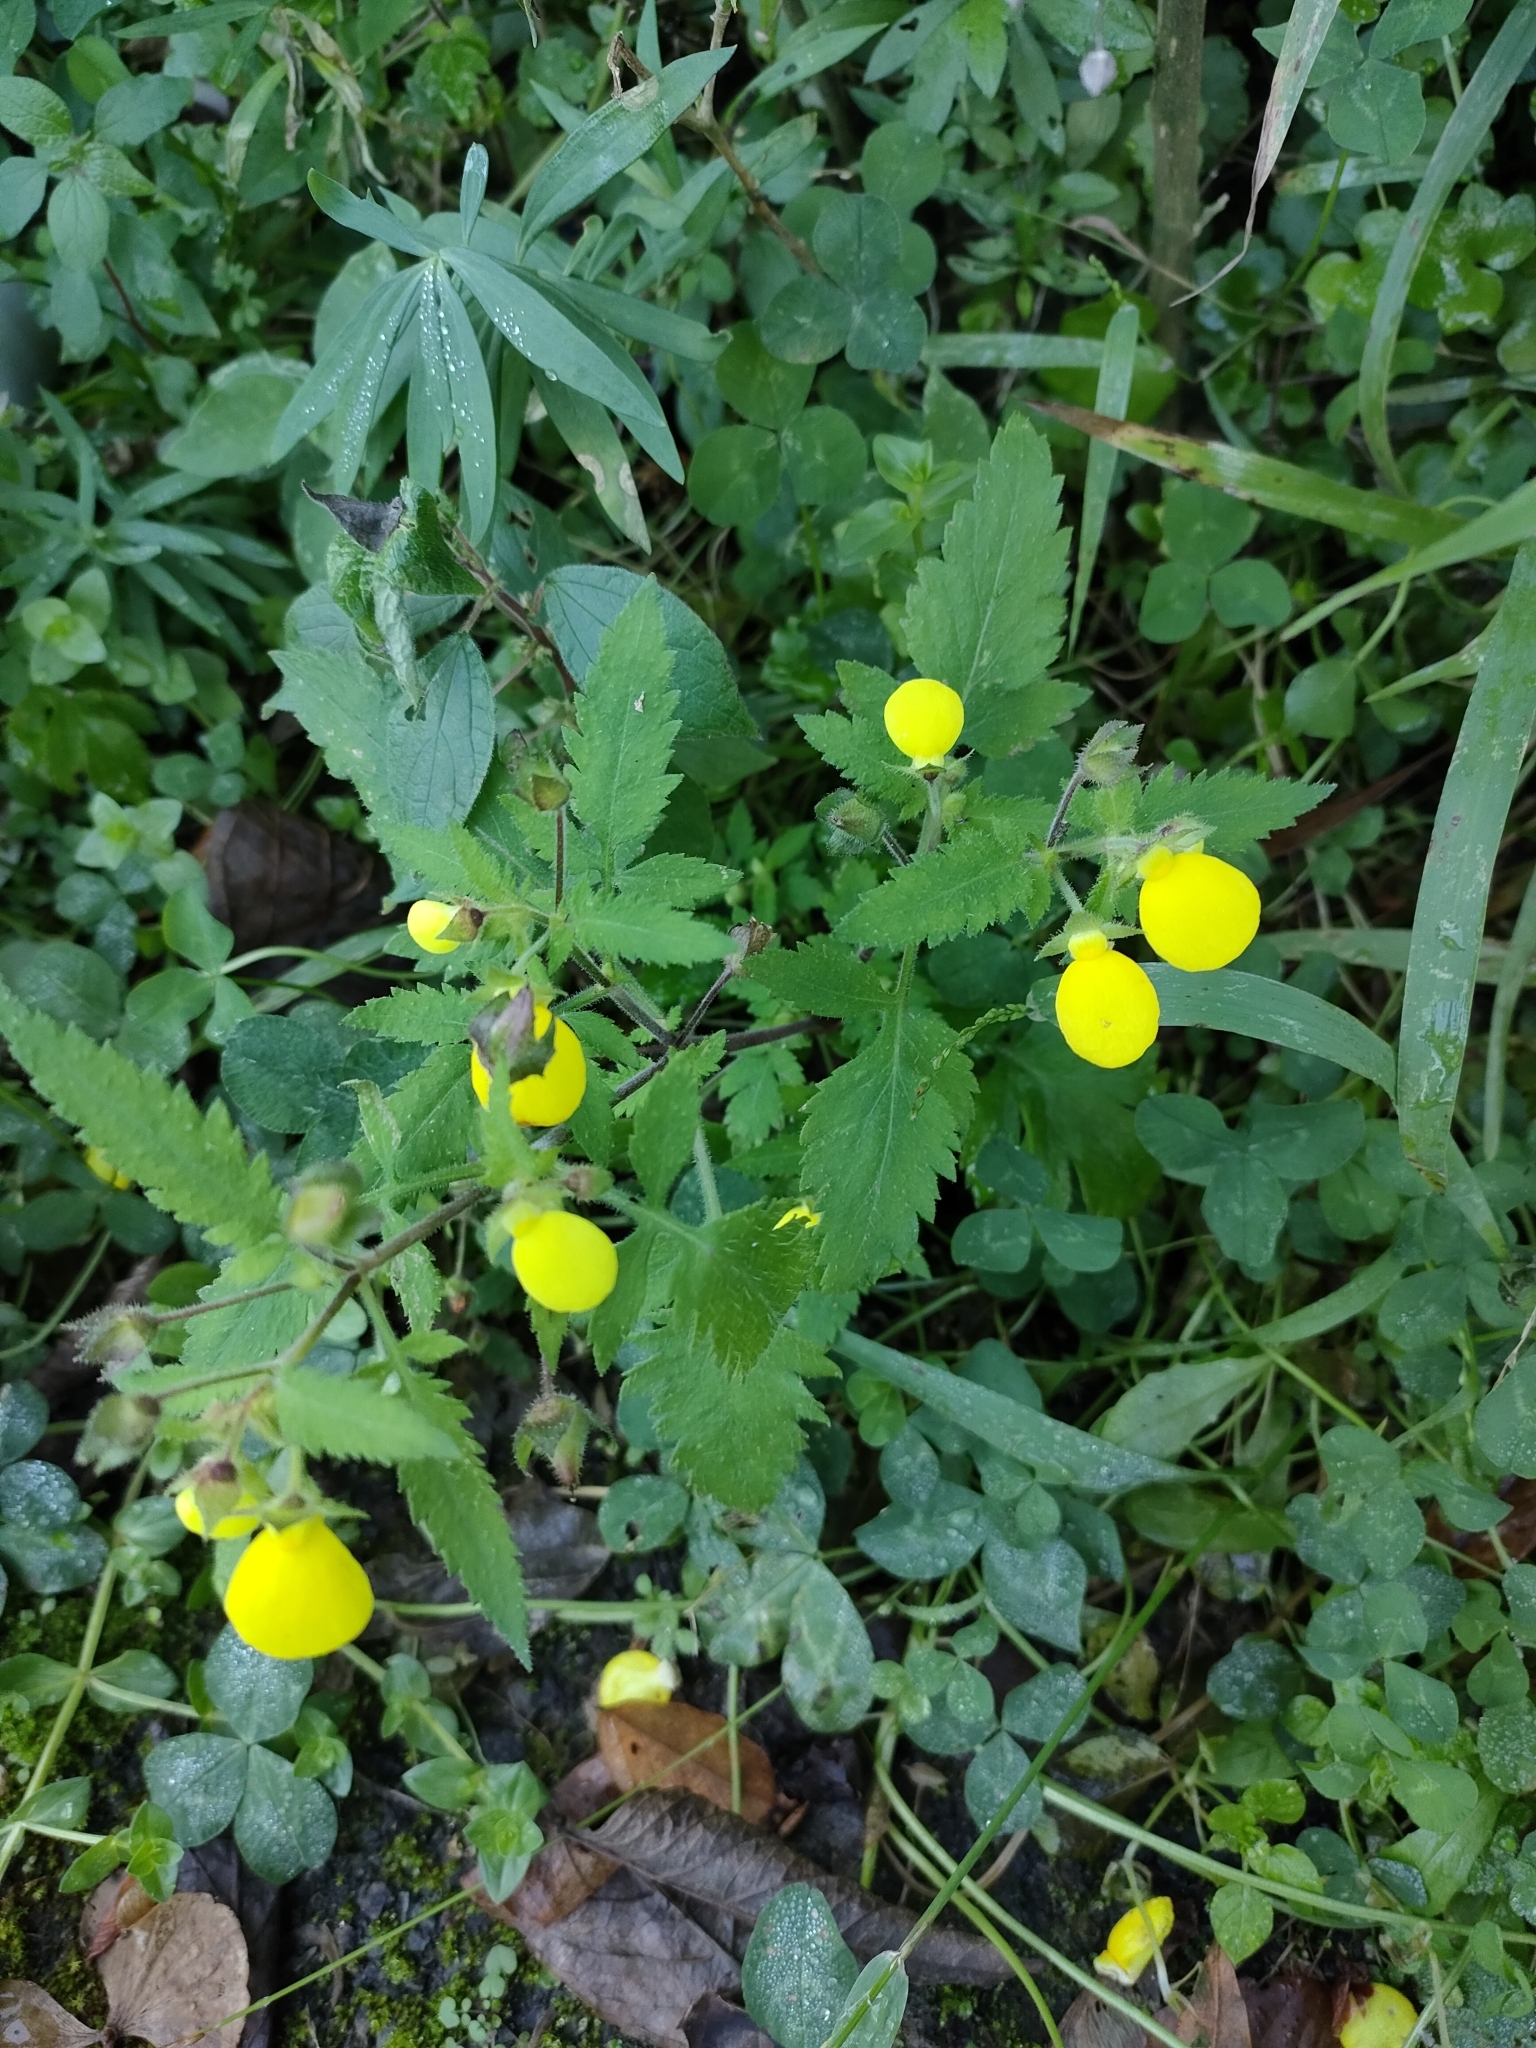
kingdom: Plantae
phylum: Tracheophyta
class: Magnoliopsida
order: Lamiales
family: Calceolariaceae
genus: Calceolaria
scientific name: Calceolaria tripartita
